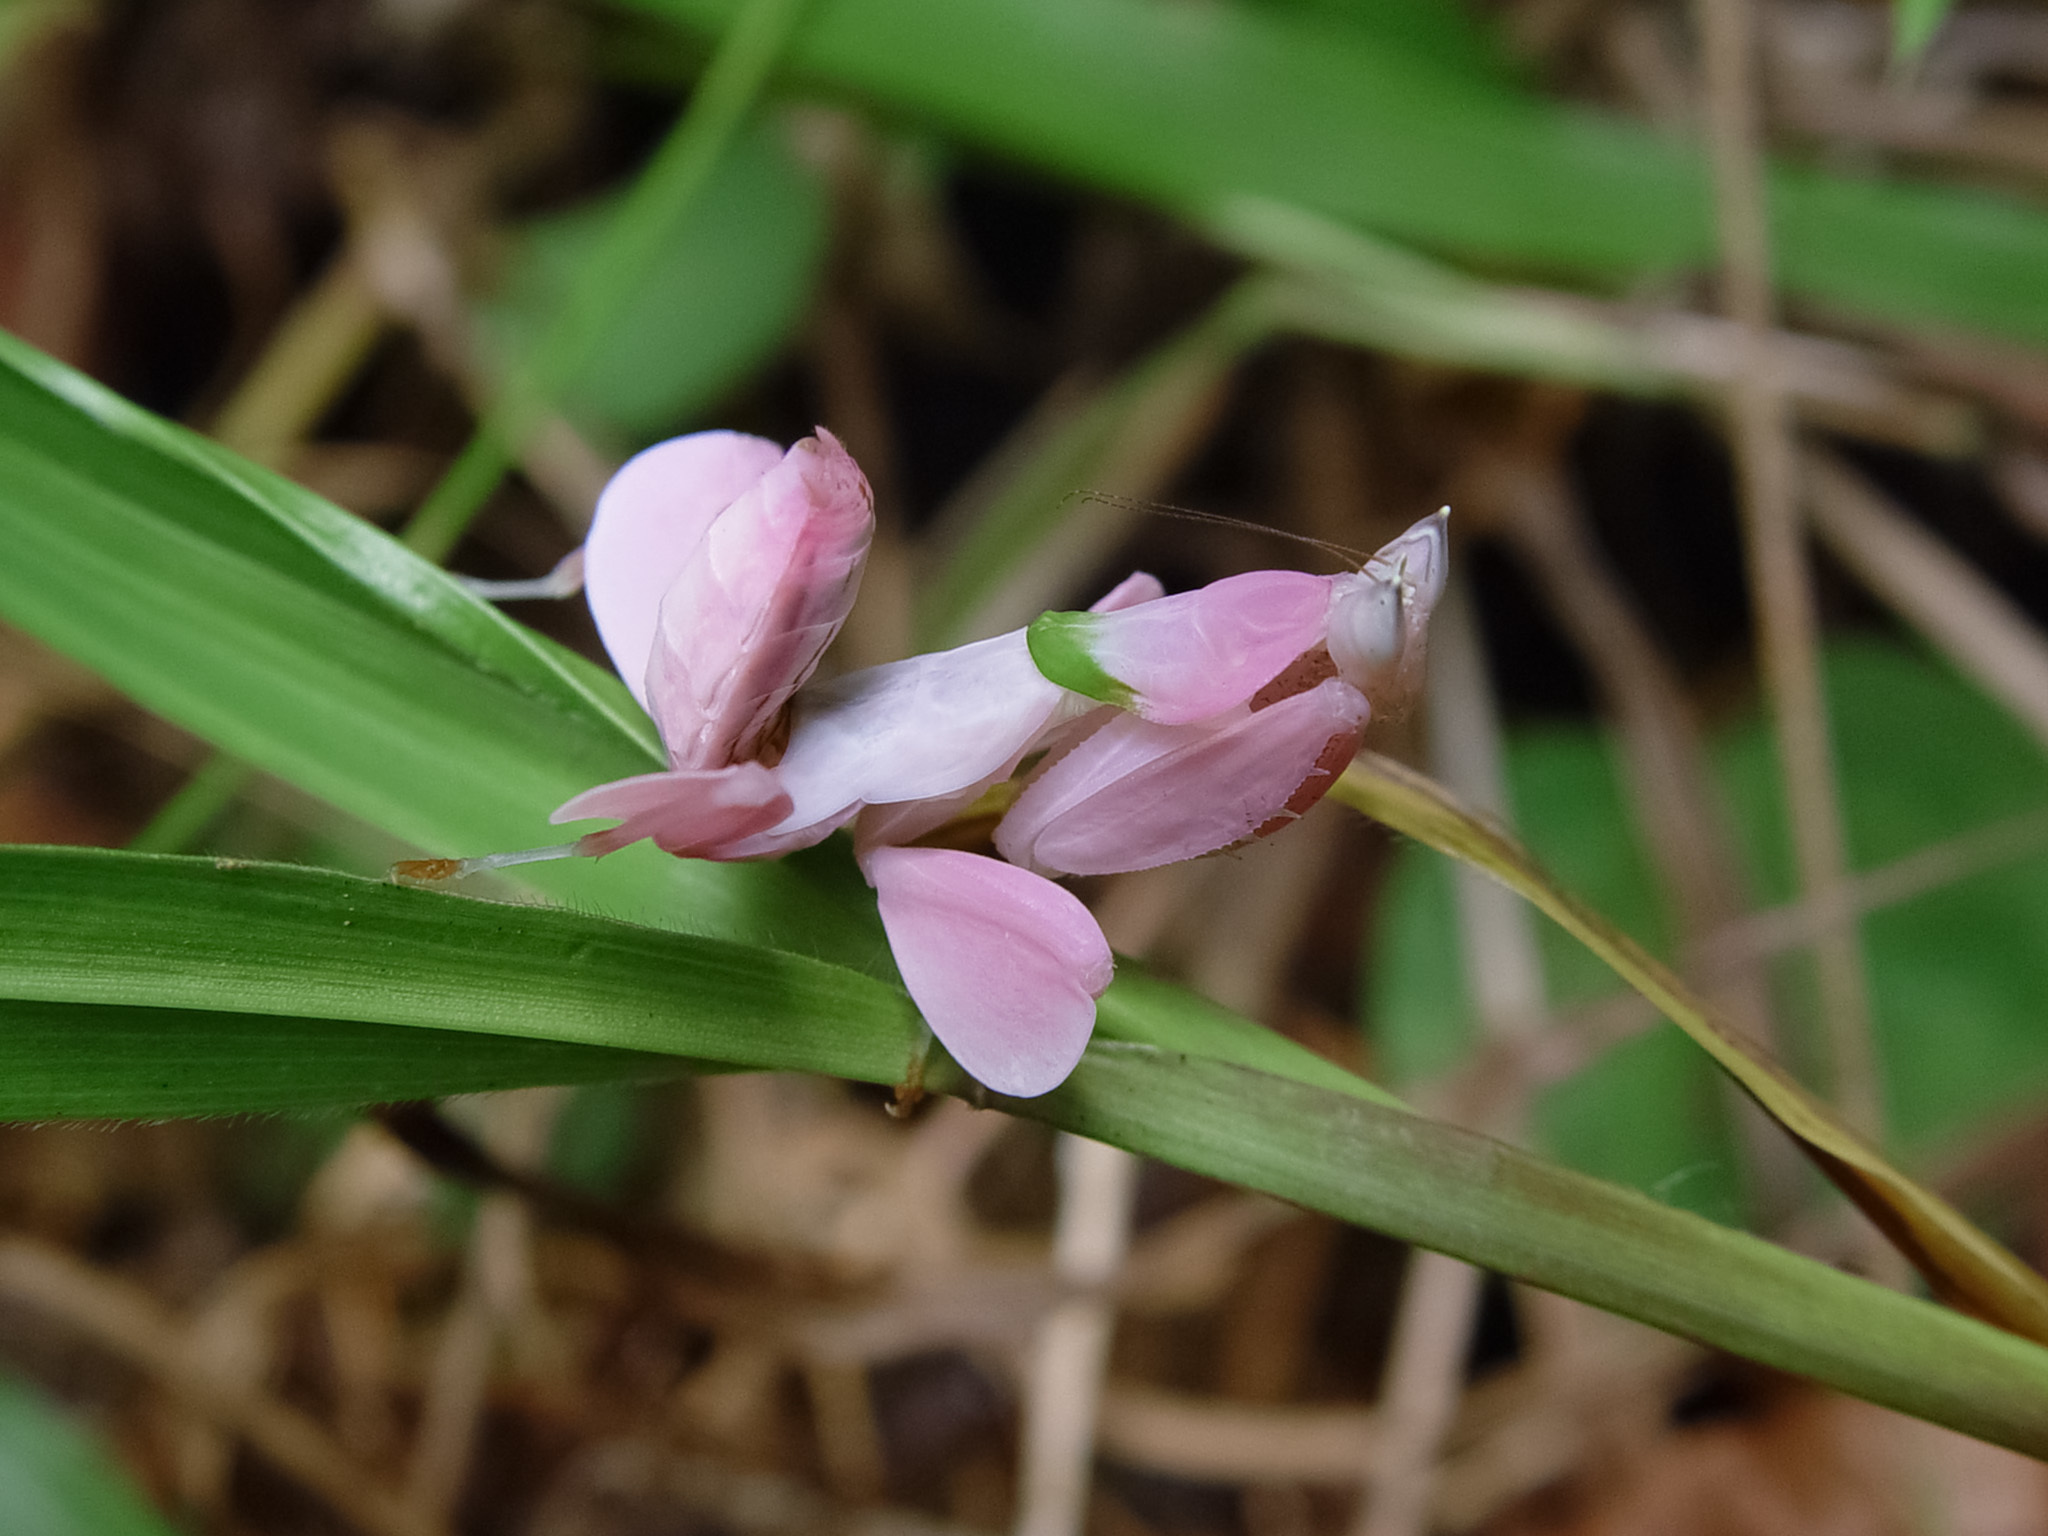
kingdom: Animalia
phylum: Arthropoda
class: Insecta
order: Mantodea
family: Hymenopodidae
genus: Hymenopus
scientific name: Hymenopus coronatus
